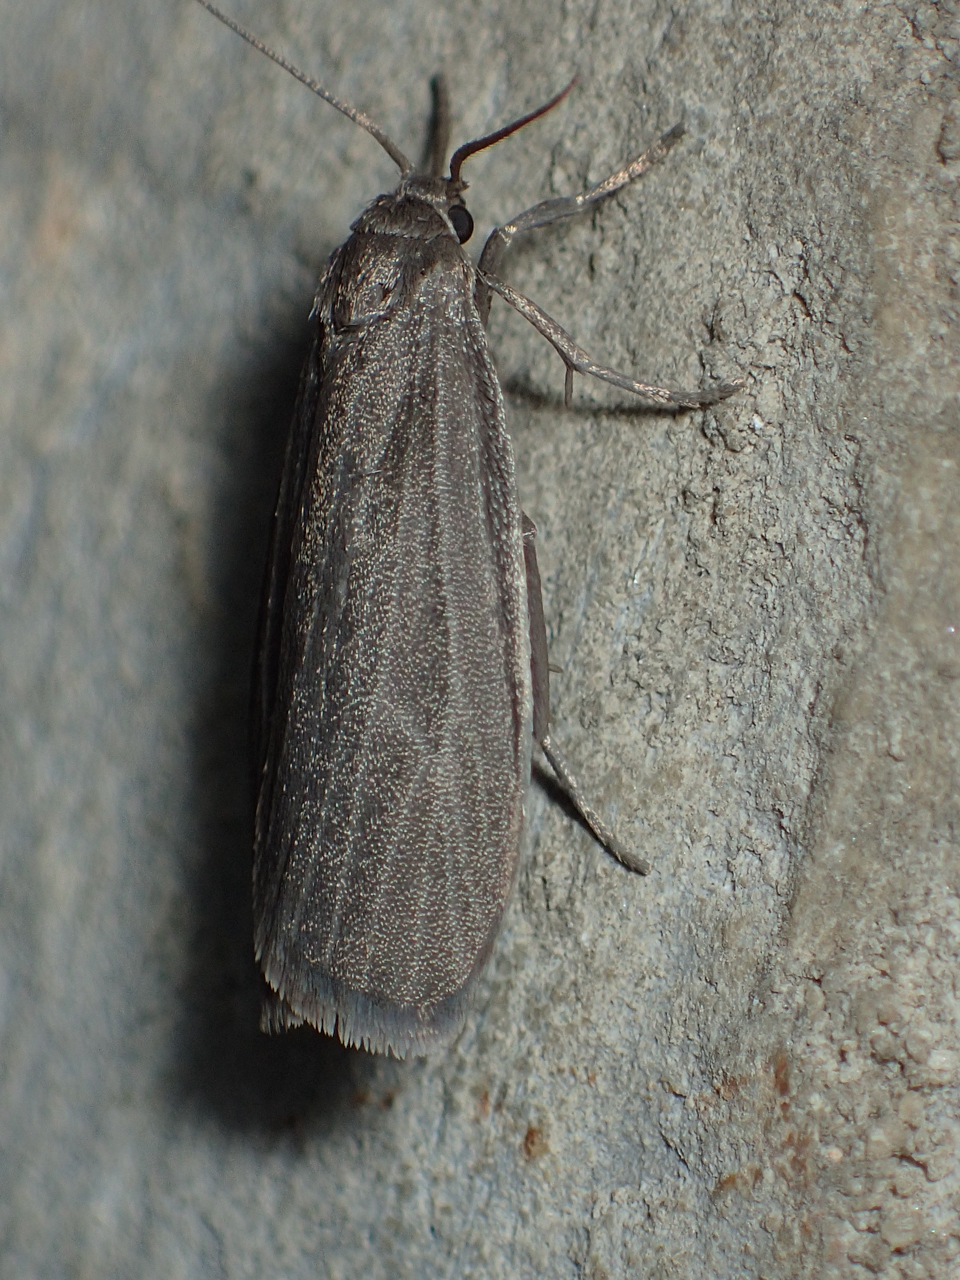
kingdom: Animalia
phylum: Arthropoda
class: Insecta
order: Lepidoptera
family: Erebidae
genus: Crambidia
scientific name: Crambidia uniformis
